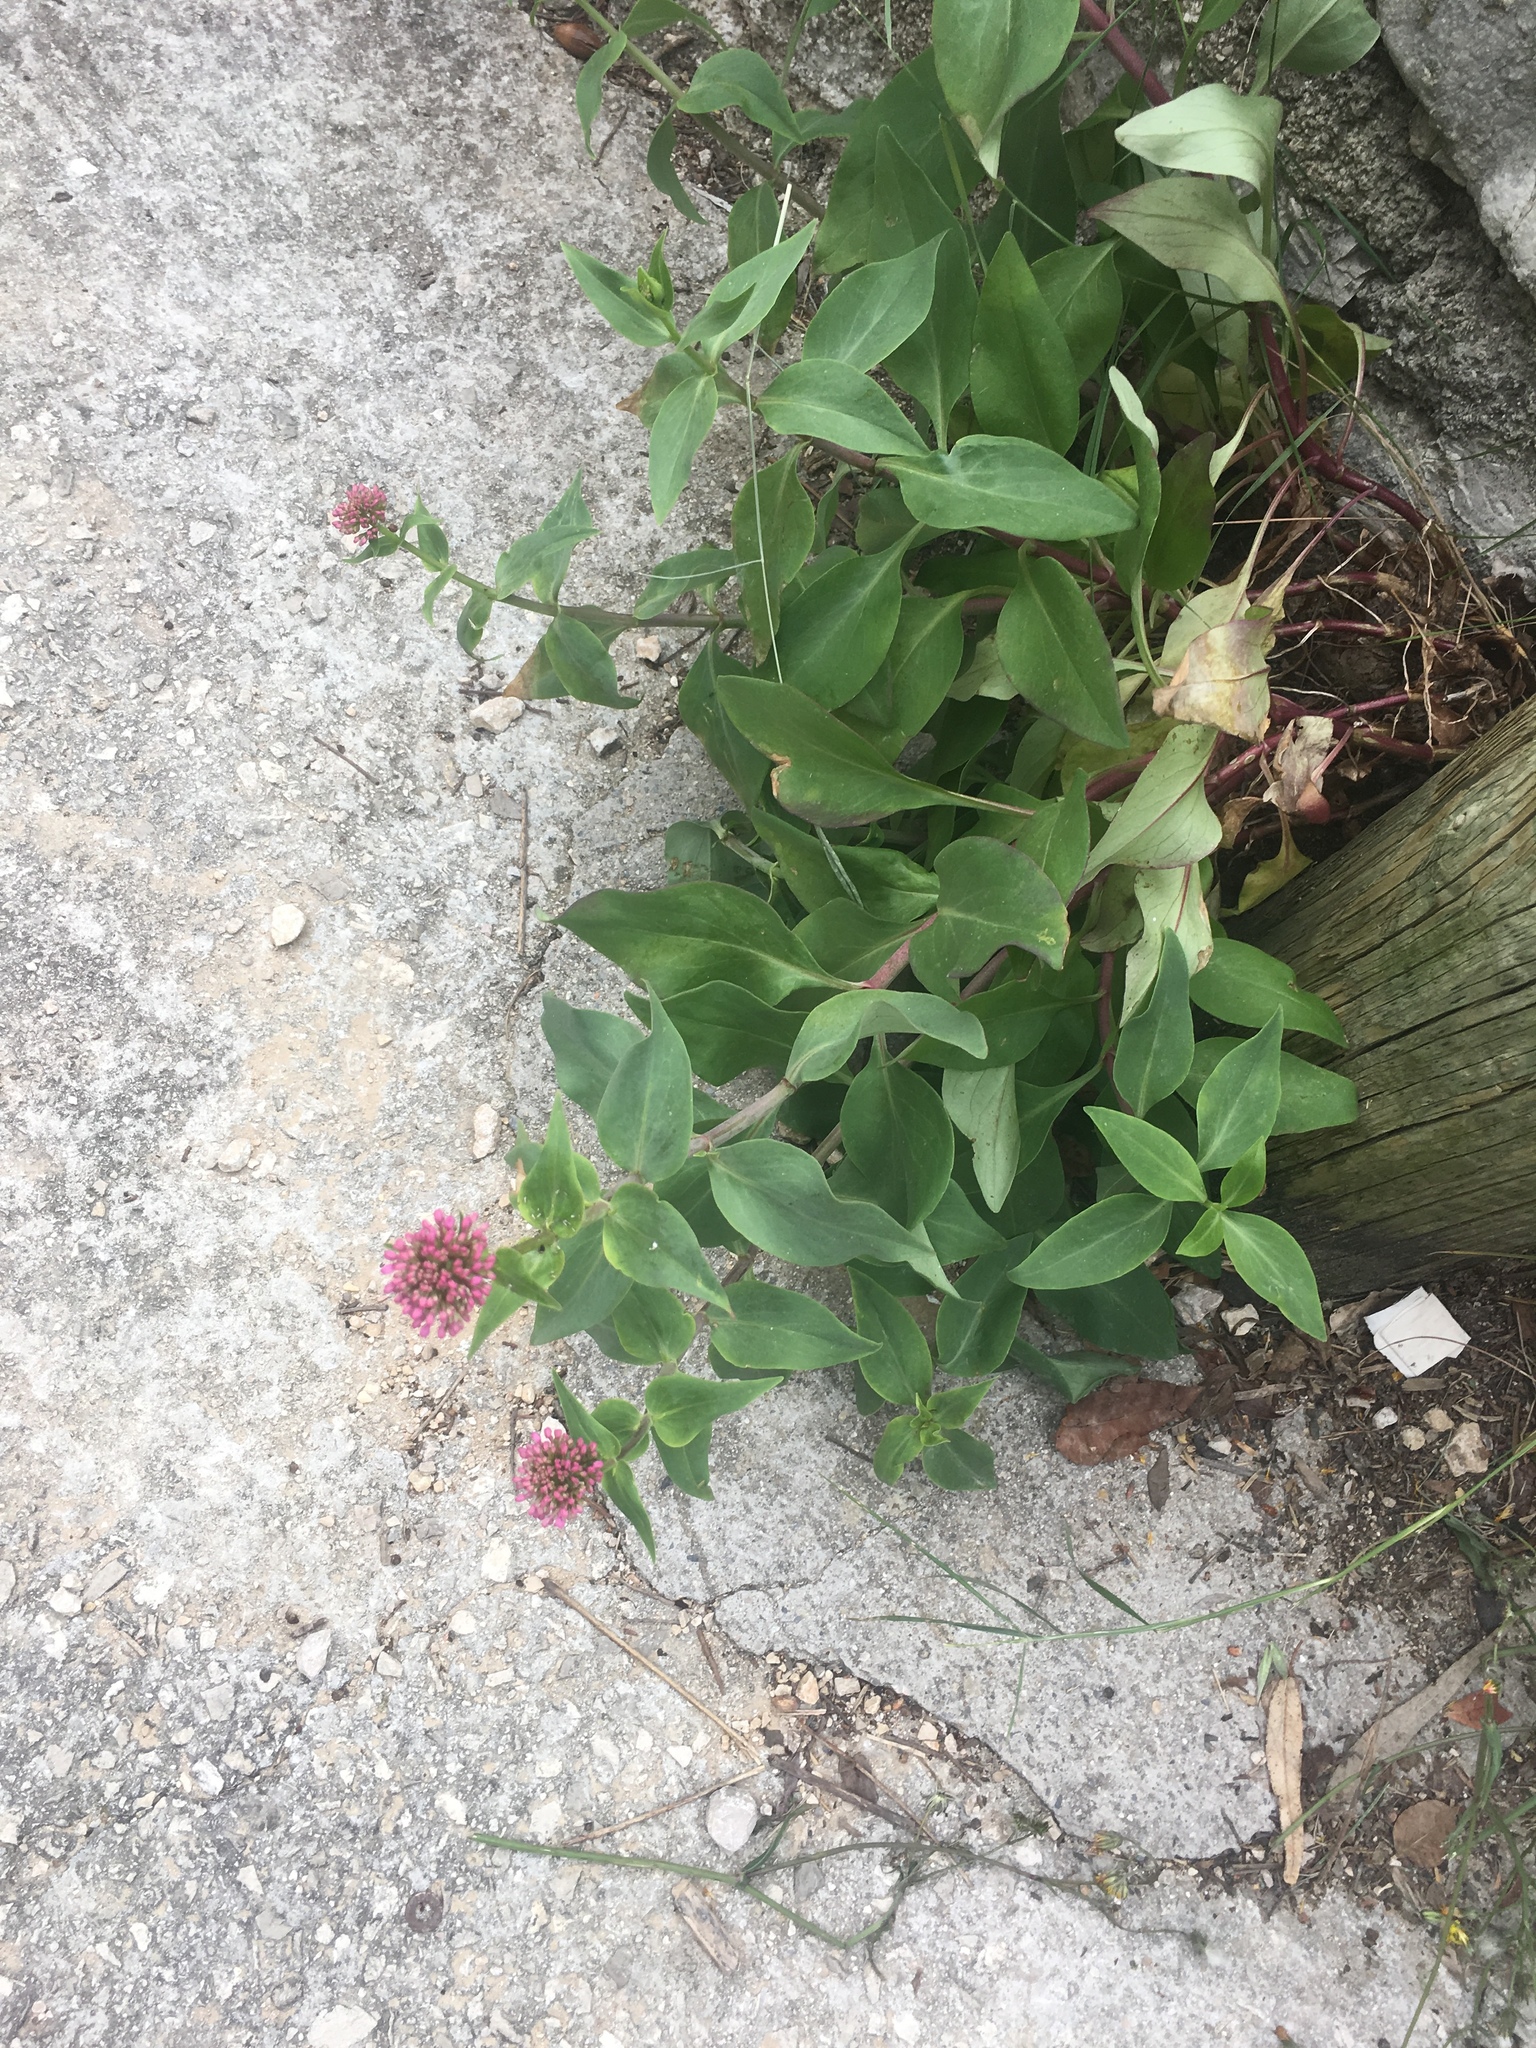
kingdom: Plantae
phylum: Tracheophyta
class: Magnoliopsida
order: Dipsacales
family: Caprifoliaceae
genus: Centranthus
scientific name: Centranthus ruber
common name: Red valerian
